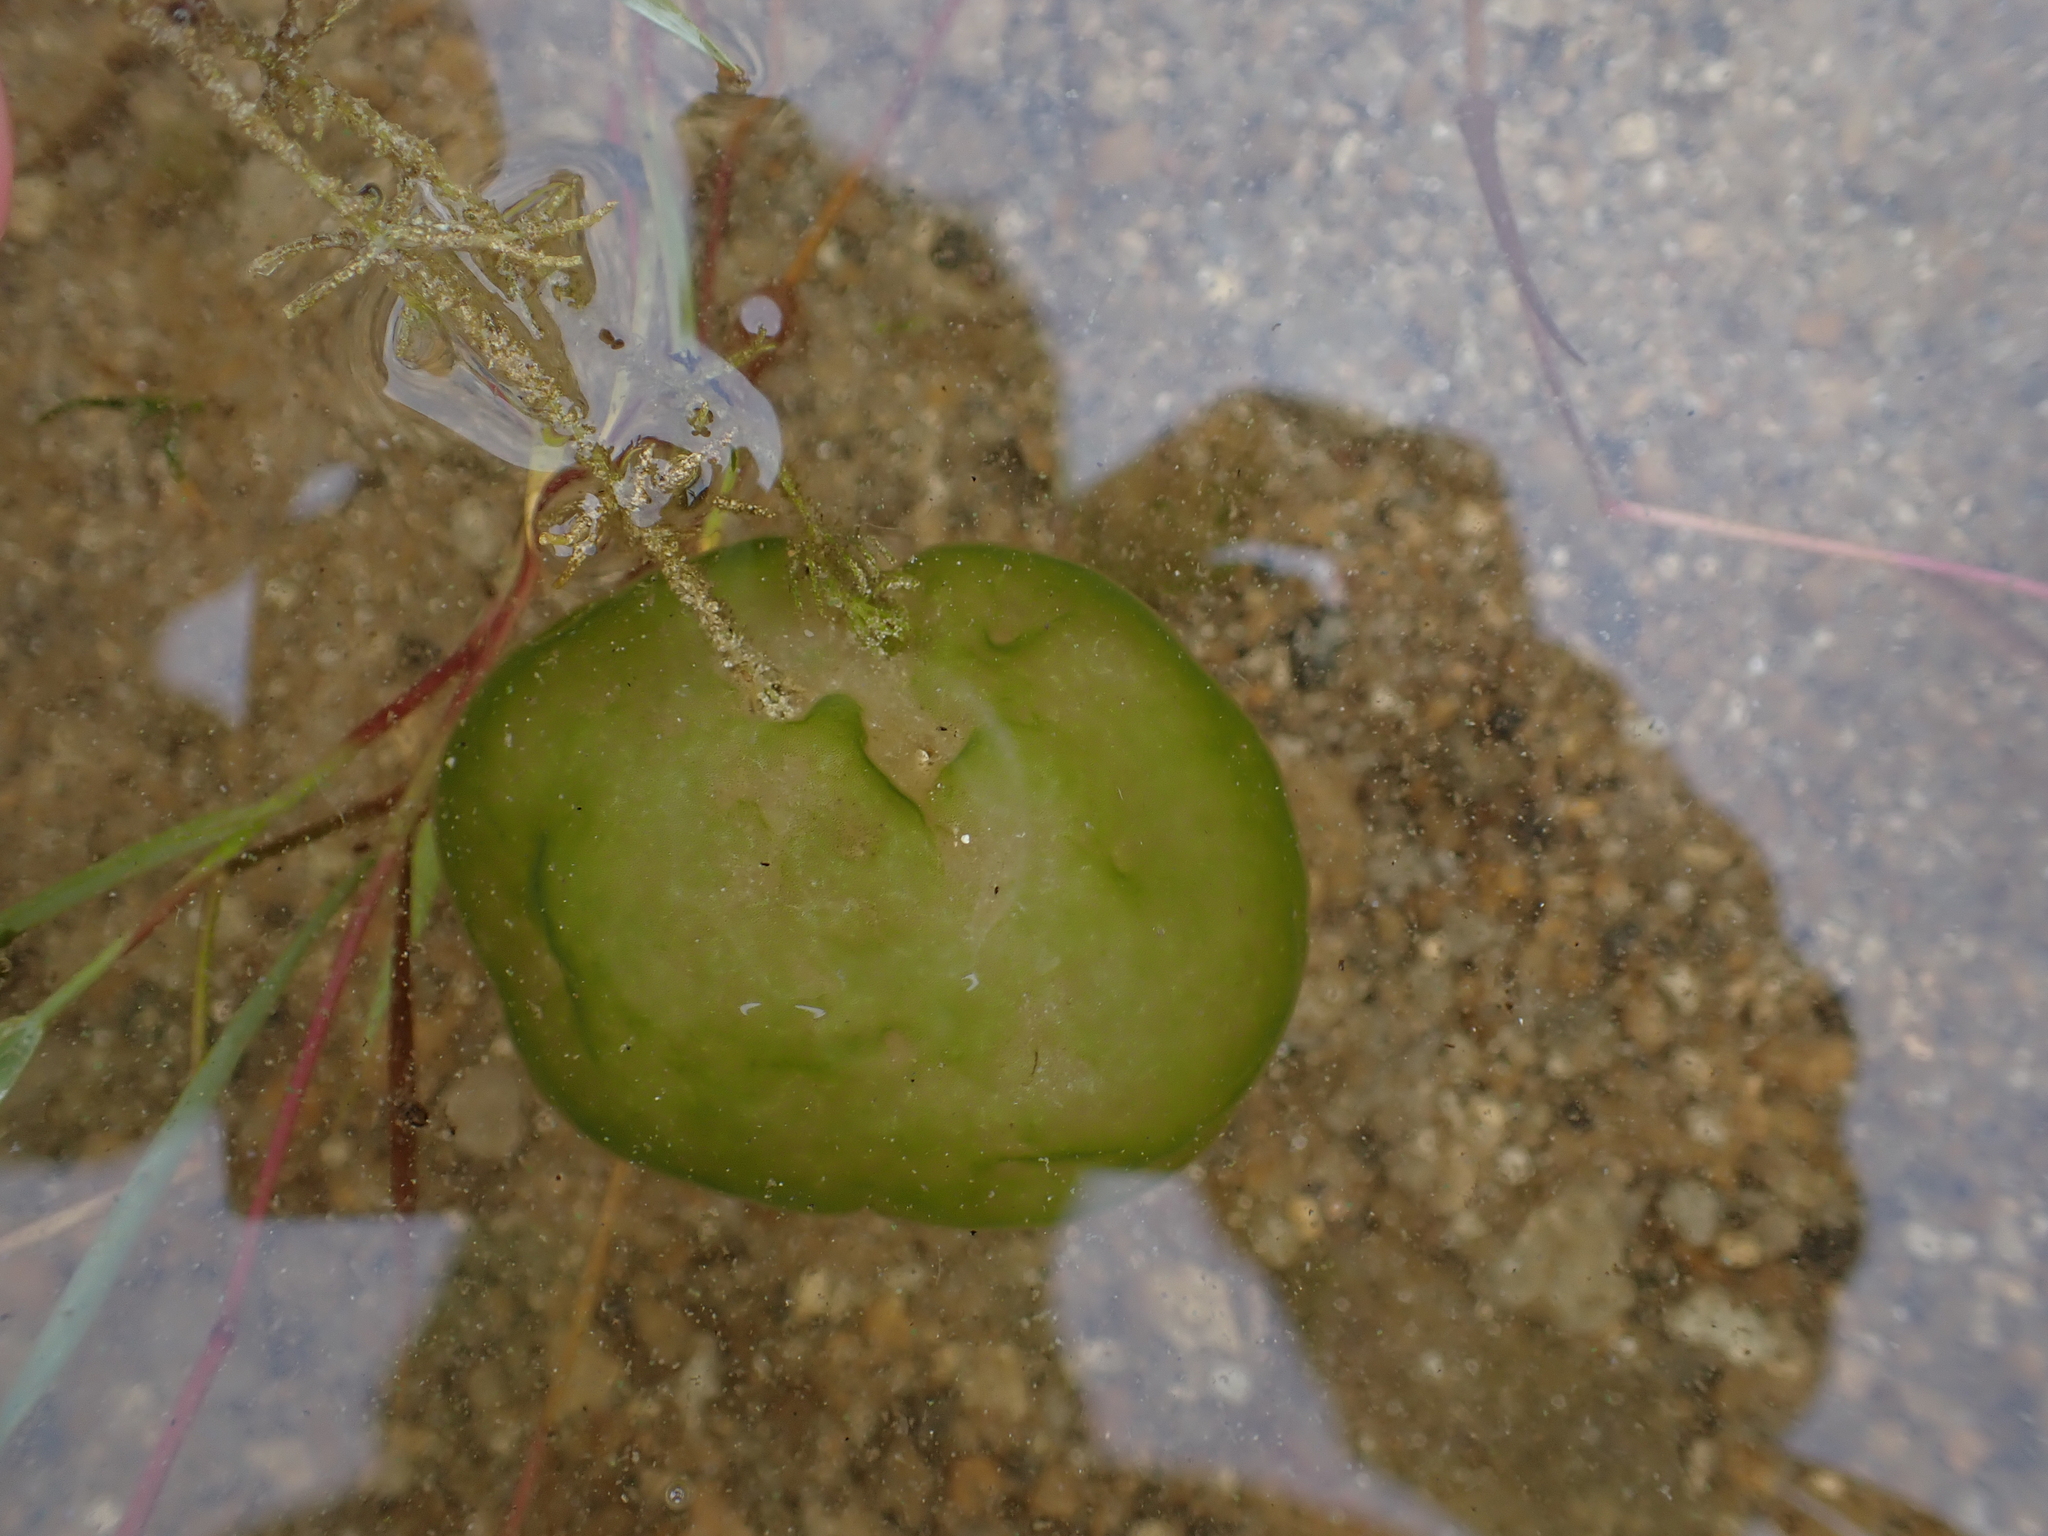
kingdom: Chromista
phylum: Ciliophora
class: Oligohymenophorea
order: Peritrichida
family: Ophrydiidae
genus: Ophrydium
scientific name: Ophrydium
